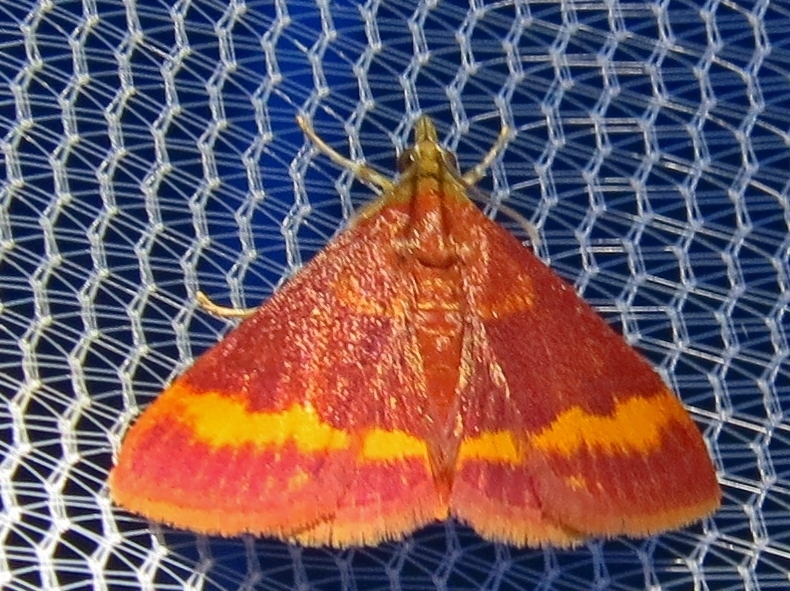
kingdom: Animalia
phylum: Arthropoda
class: Insecta
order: Lepidoptera
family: Crambidae
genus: Pyrausta
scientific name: Pyrausta pseuderosnealis
